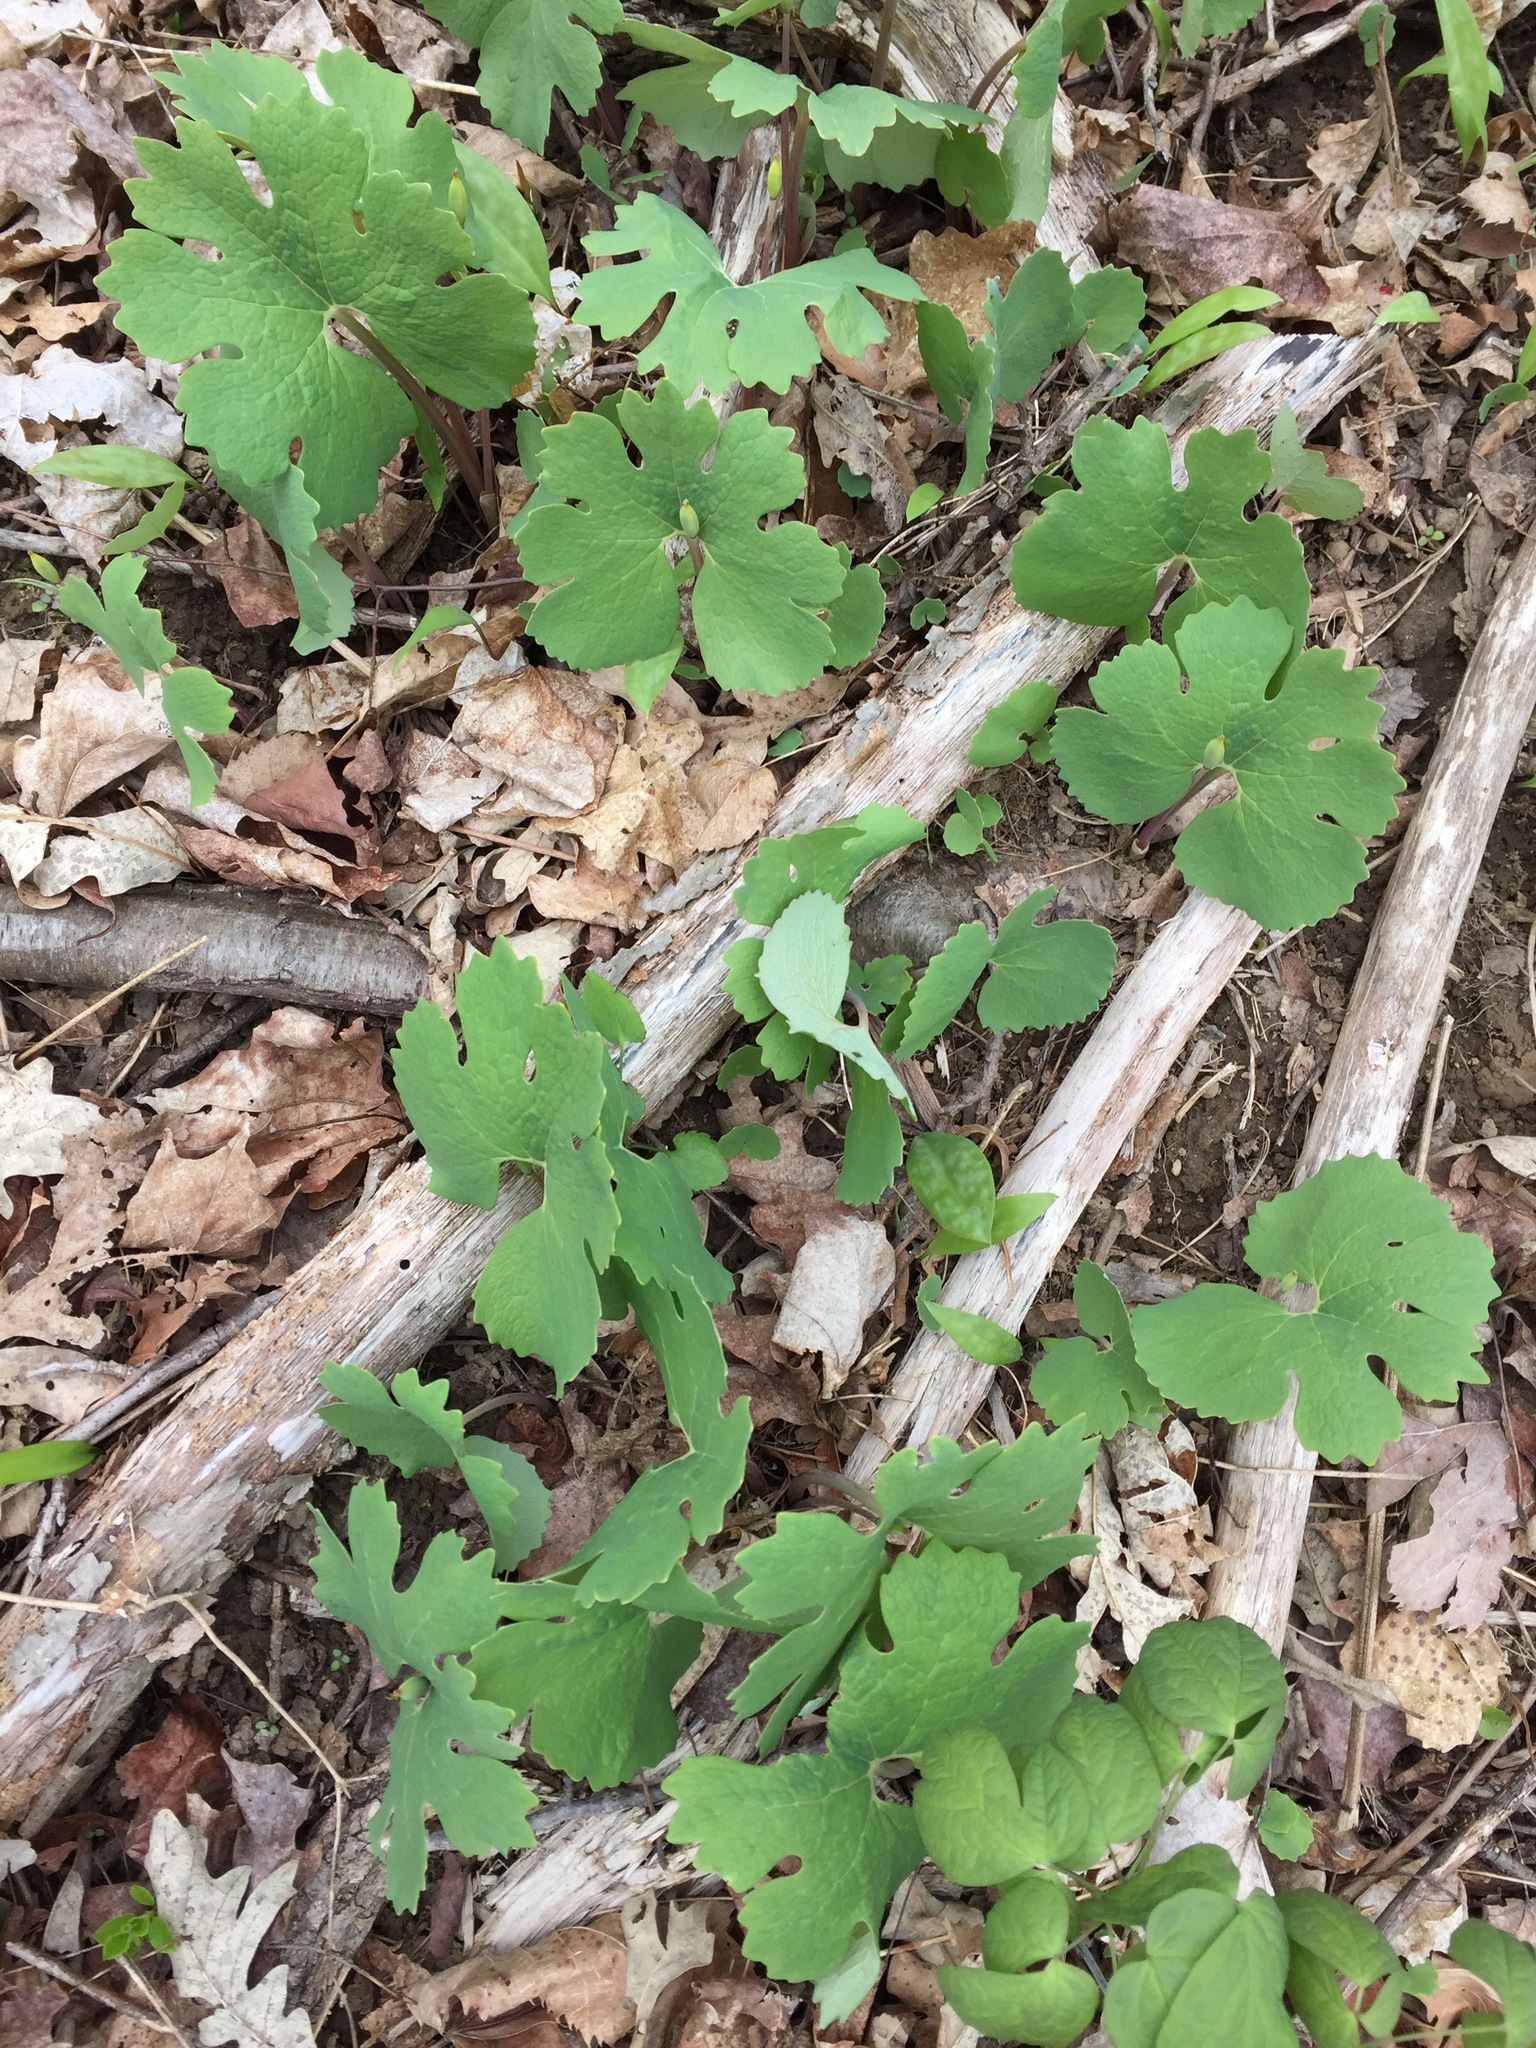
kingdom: Plantae
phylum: Tracheophyta
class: Magnoliopsida
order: Ranunculales
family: Papaveraceae
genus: Sanguinaria
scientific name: Sanguinaria canadensis
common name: Bloodroot
